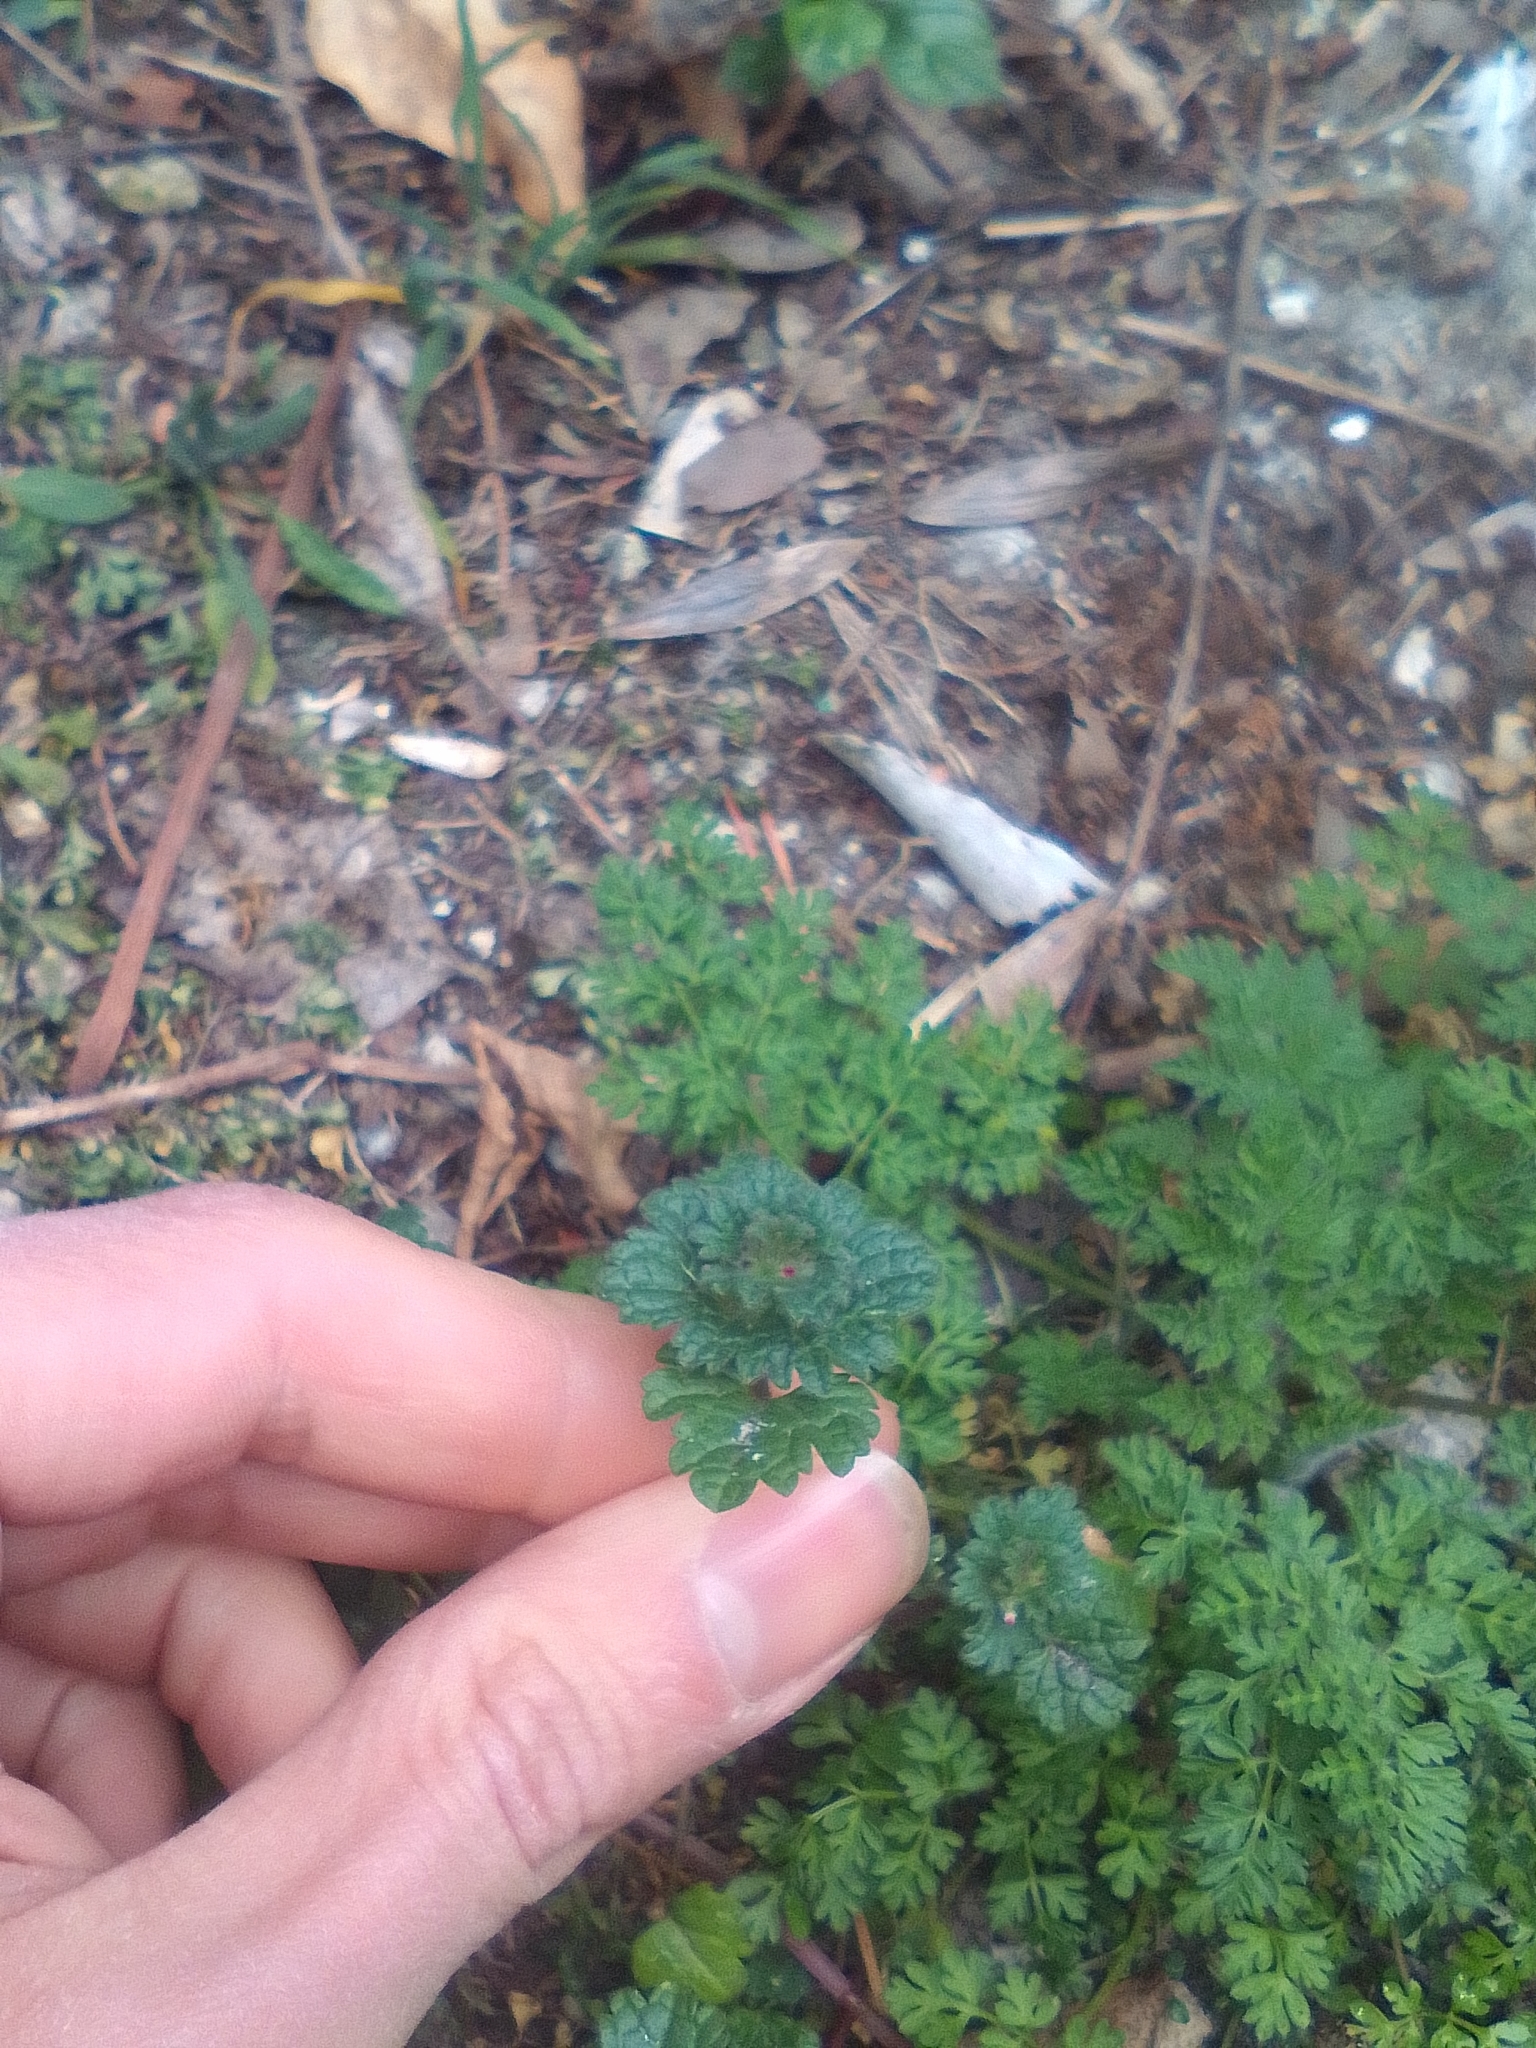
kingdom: Plantae
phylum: Tracheophyta
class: Magnoliopsida
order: Lamiales
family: Lamiaceae
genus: Lamium
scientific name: Lamium amplexicaule
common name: Henbit dead-nettle
